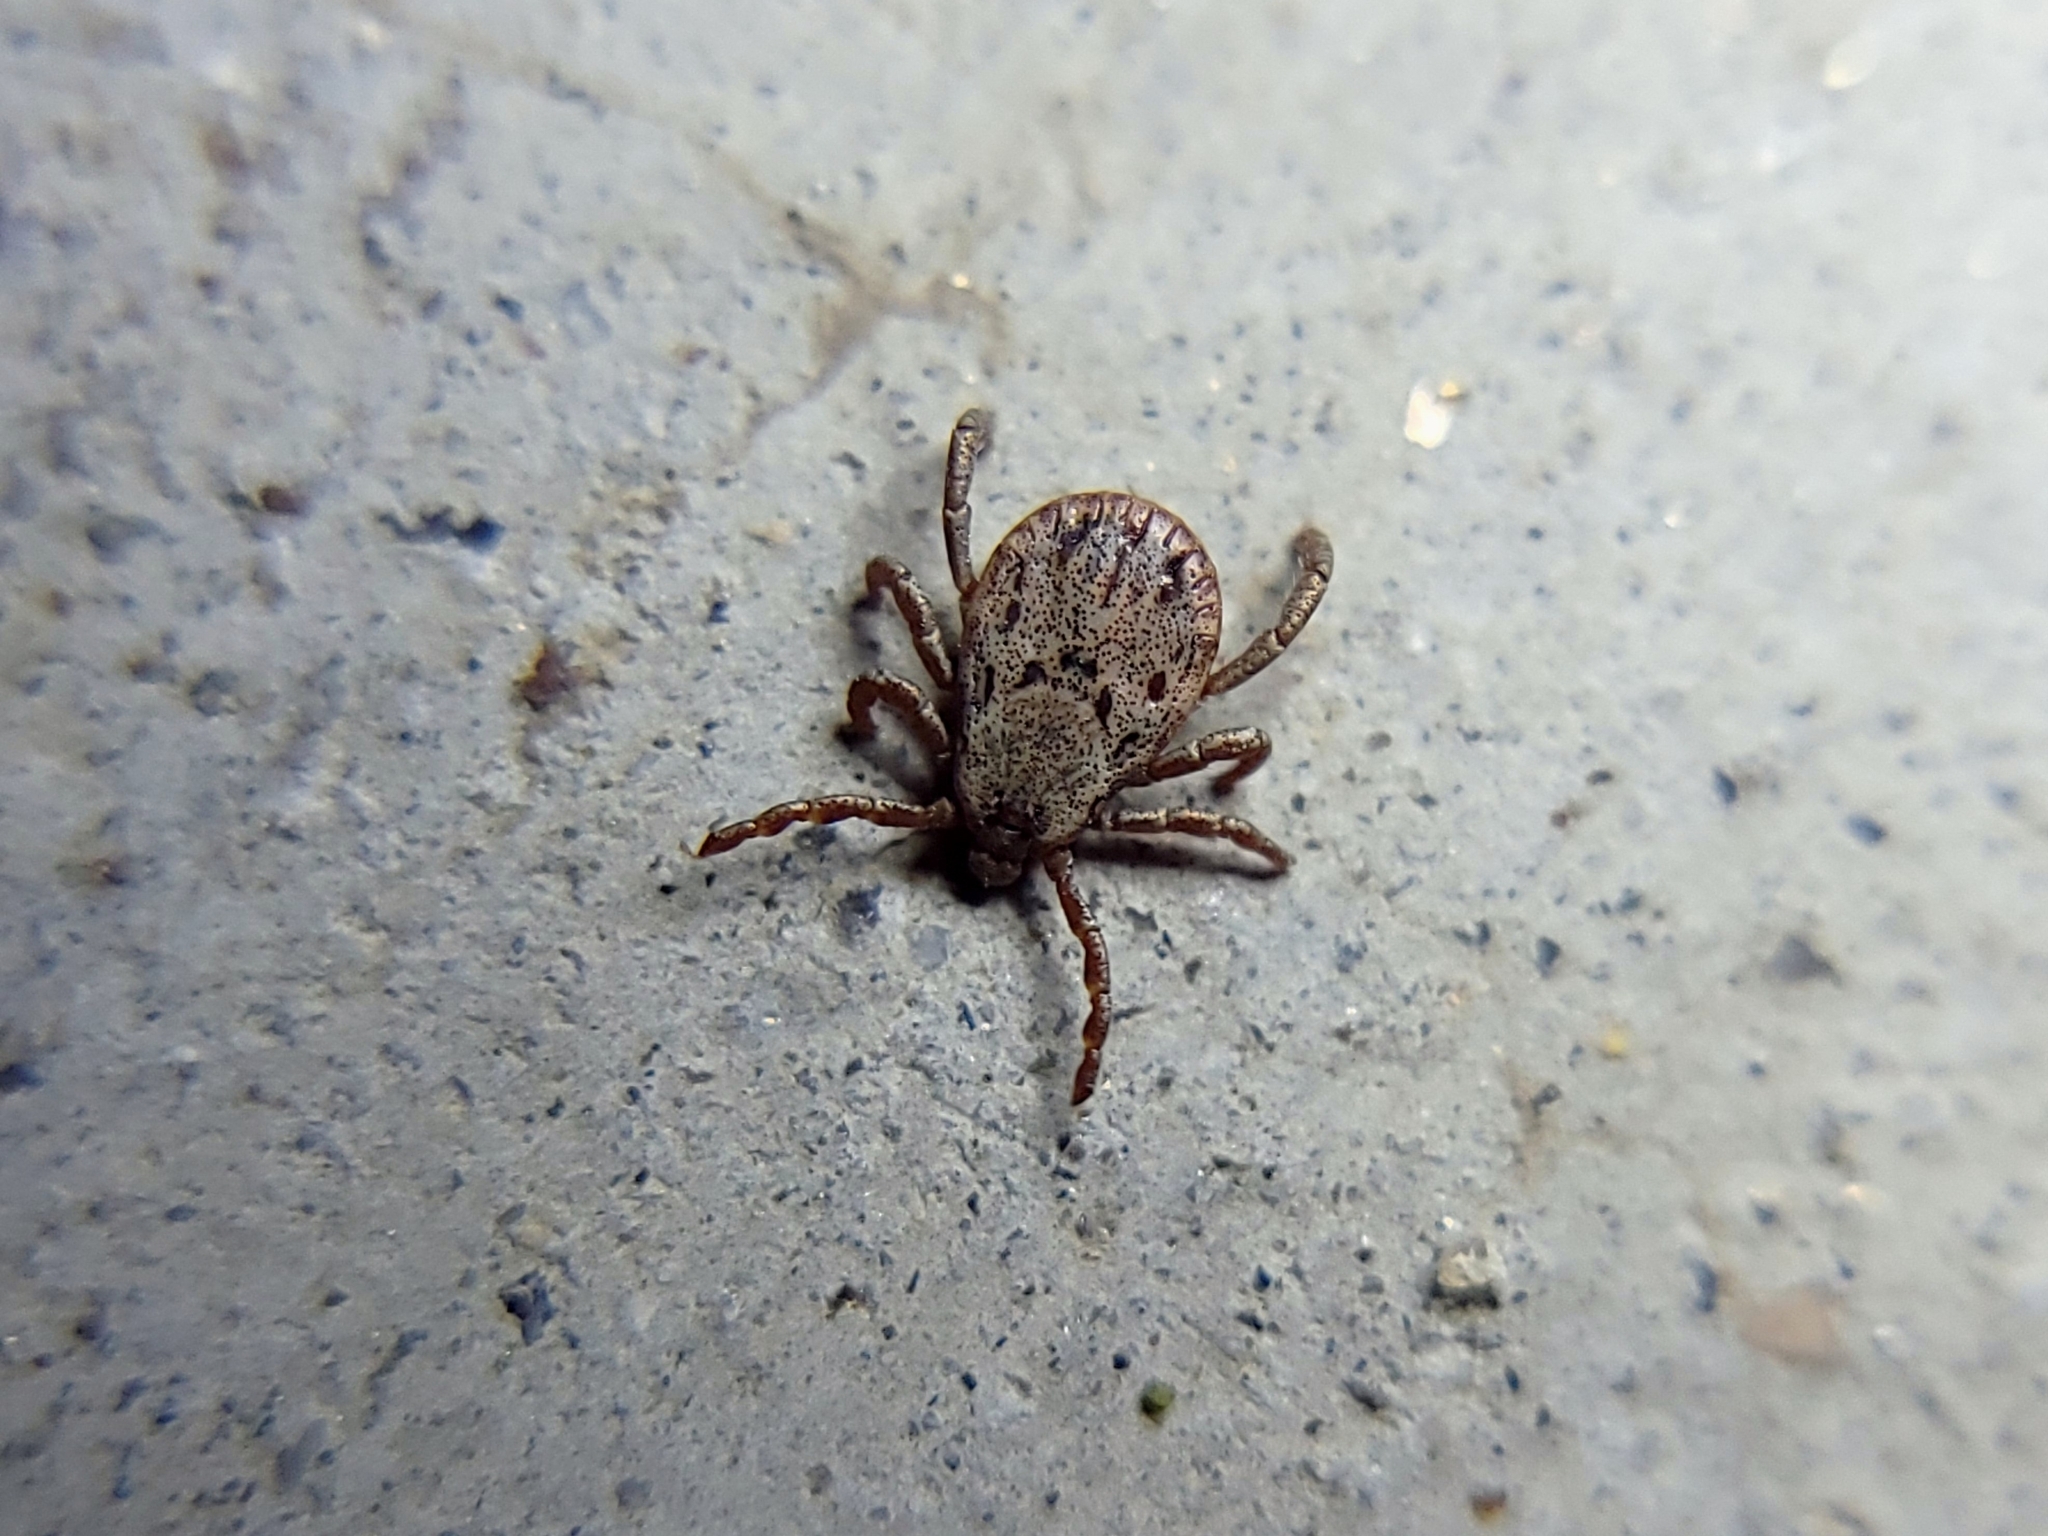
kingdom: Animalia
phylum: Arthropoda
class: Arachnida
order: Ixodida
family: Ixodidae
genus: Dermacentor
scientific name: Dermacentor occidentalis
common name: Net tick
